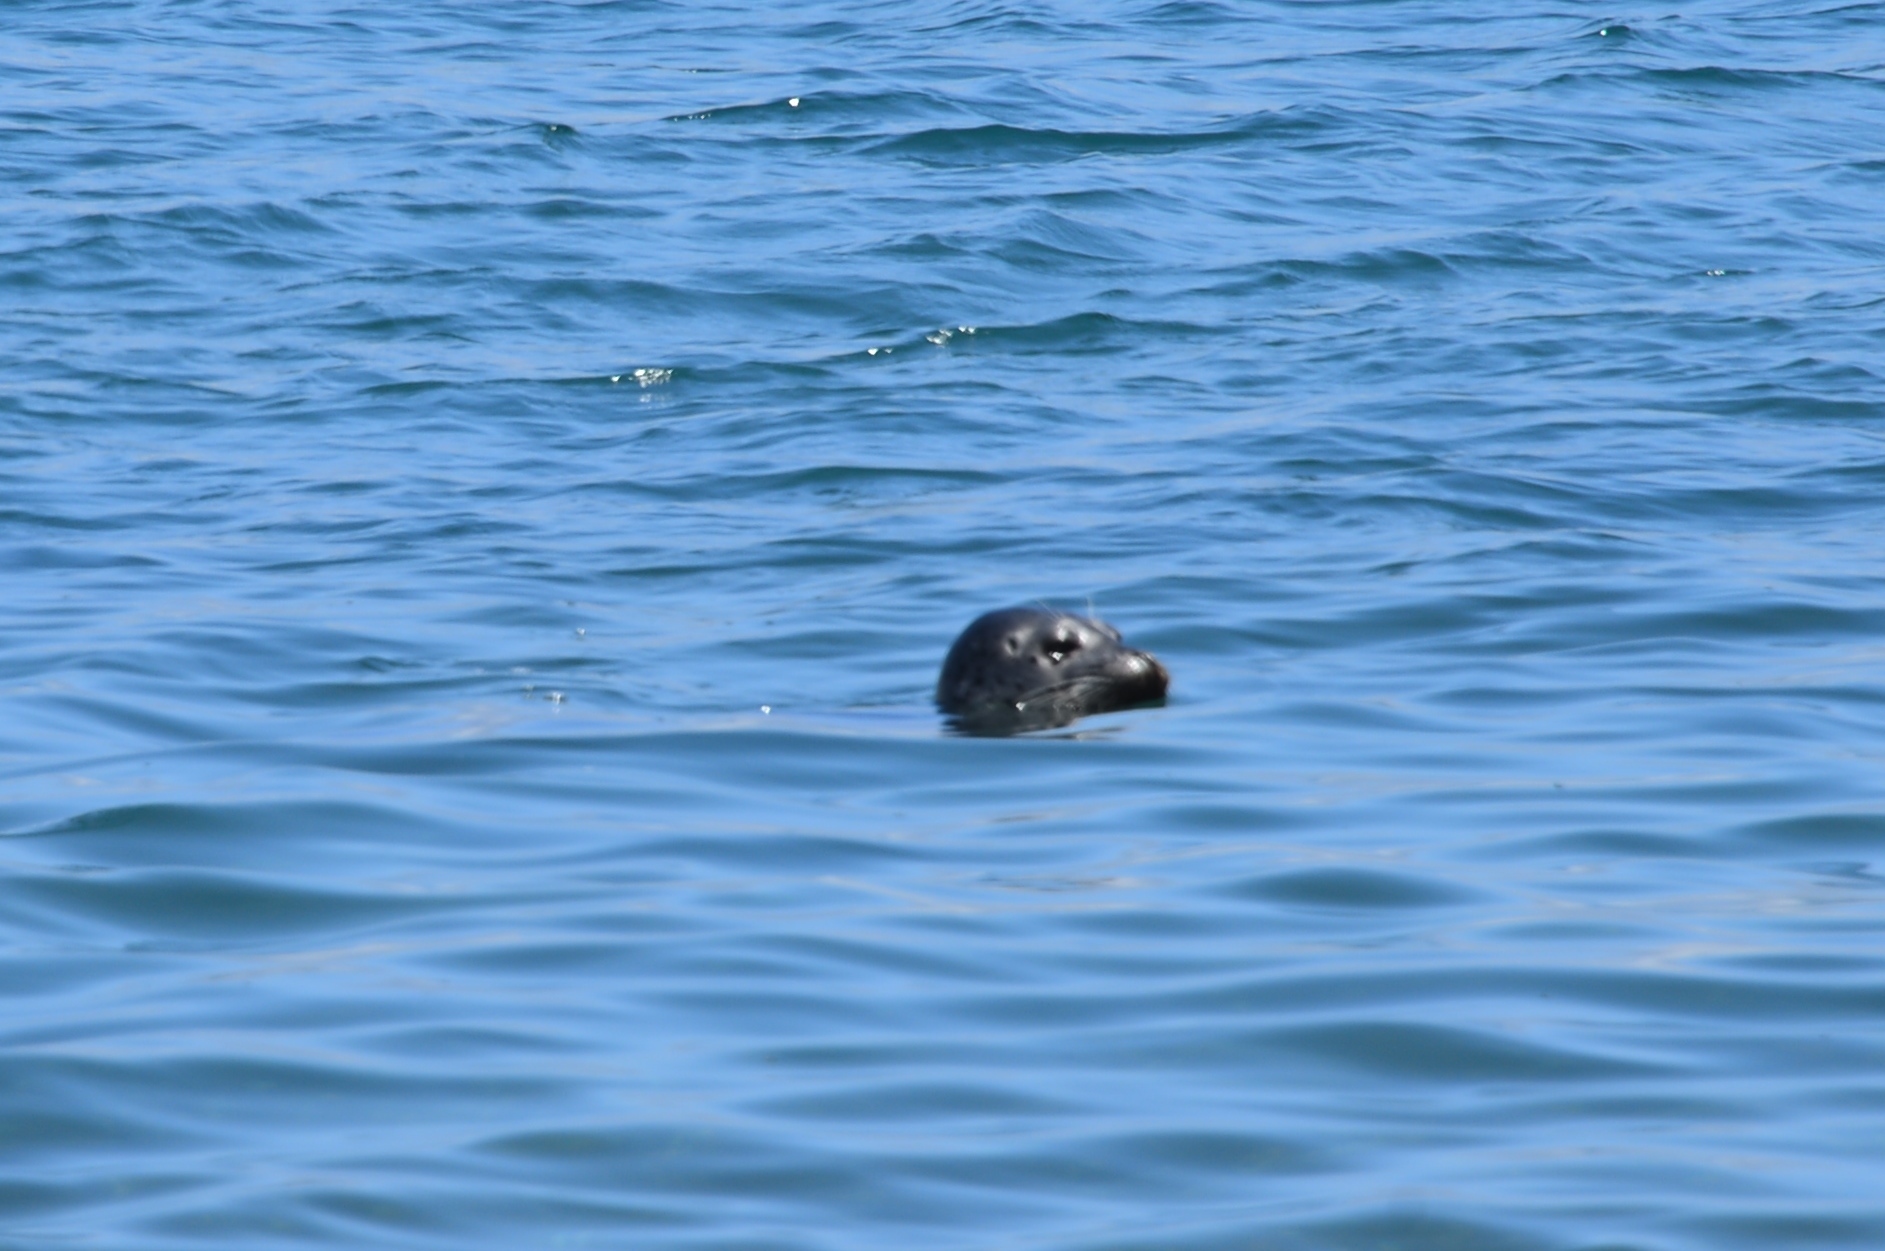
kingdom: Animalia
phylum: Chordata
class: Mammalia
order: Carnivora
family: Phocidae
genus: Phoca
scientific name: Phoca vitulina
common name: Harbor seal
